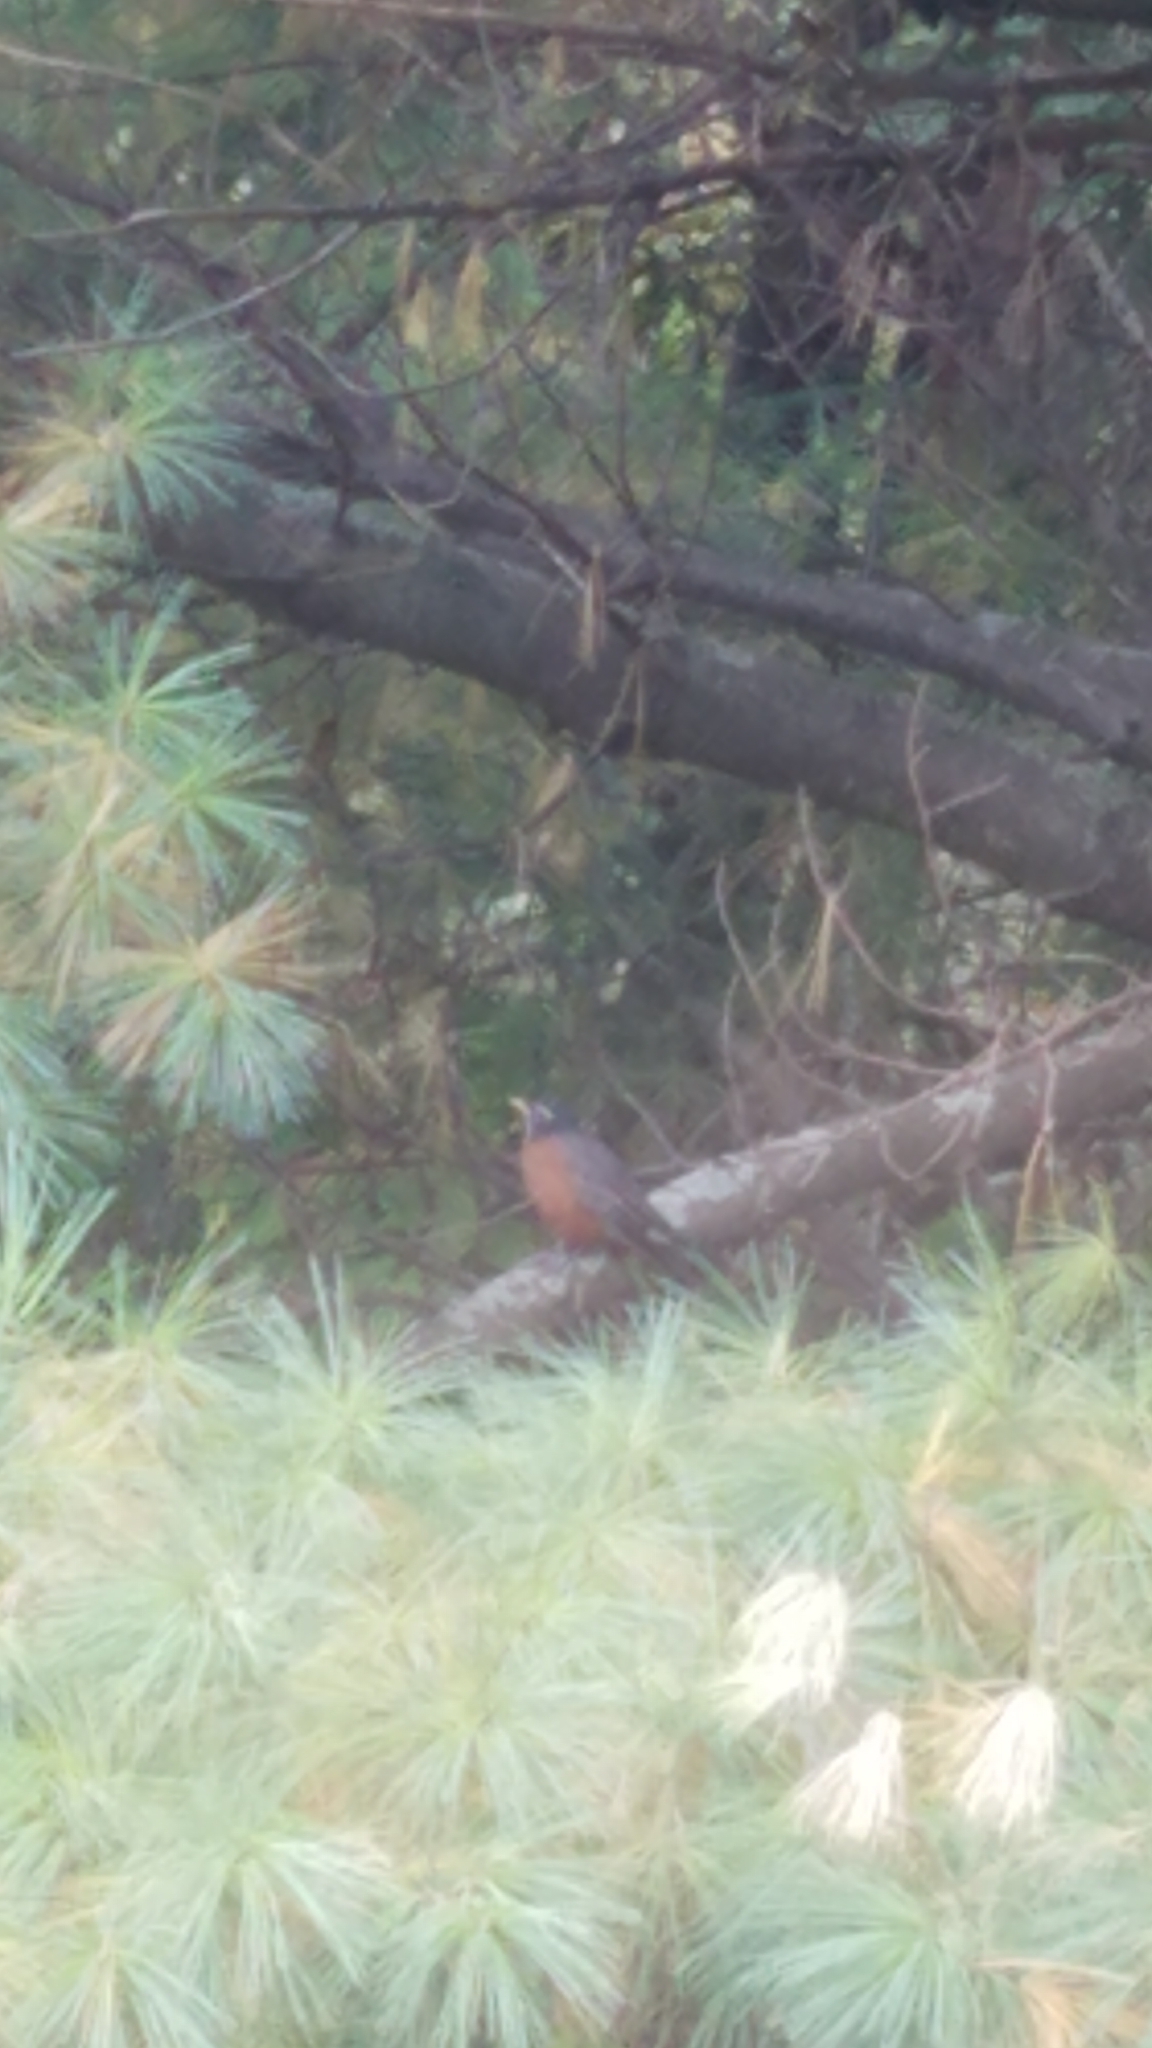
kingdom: Animalia
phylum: Chordata
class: Aves
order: Passeriformes
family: Turdidae
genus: Turdus
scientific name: Turdus migratorius
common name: American robin
